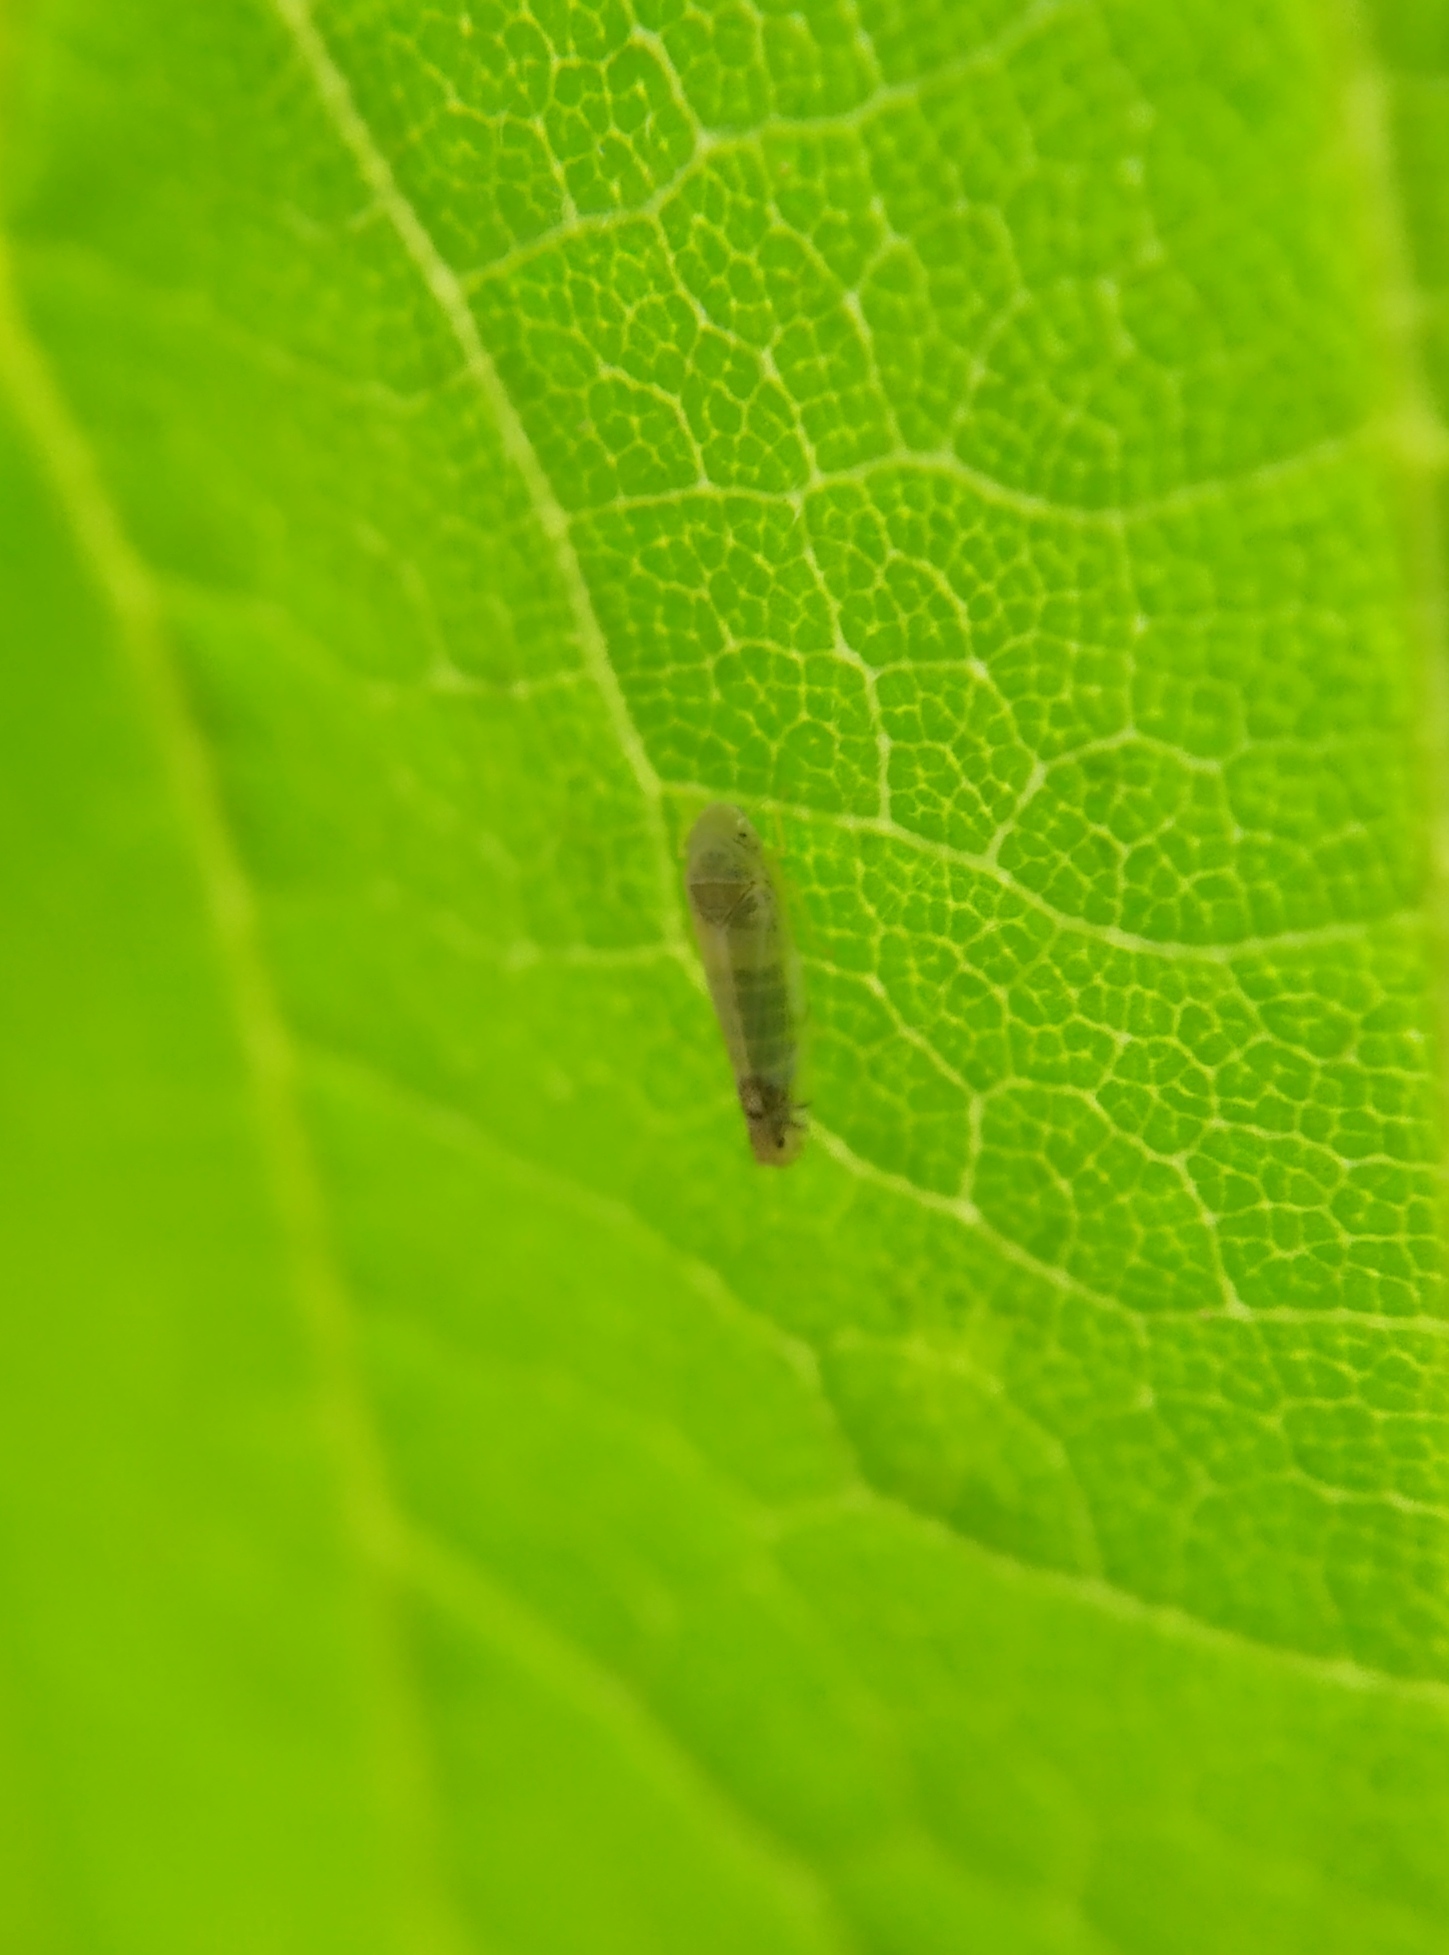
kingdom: Animalia
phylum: Arthropoda
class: Insecta
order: Hemiptera
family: Cicadellidae
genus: Zyginella
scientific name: Zyginella pulchra
